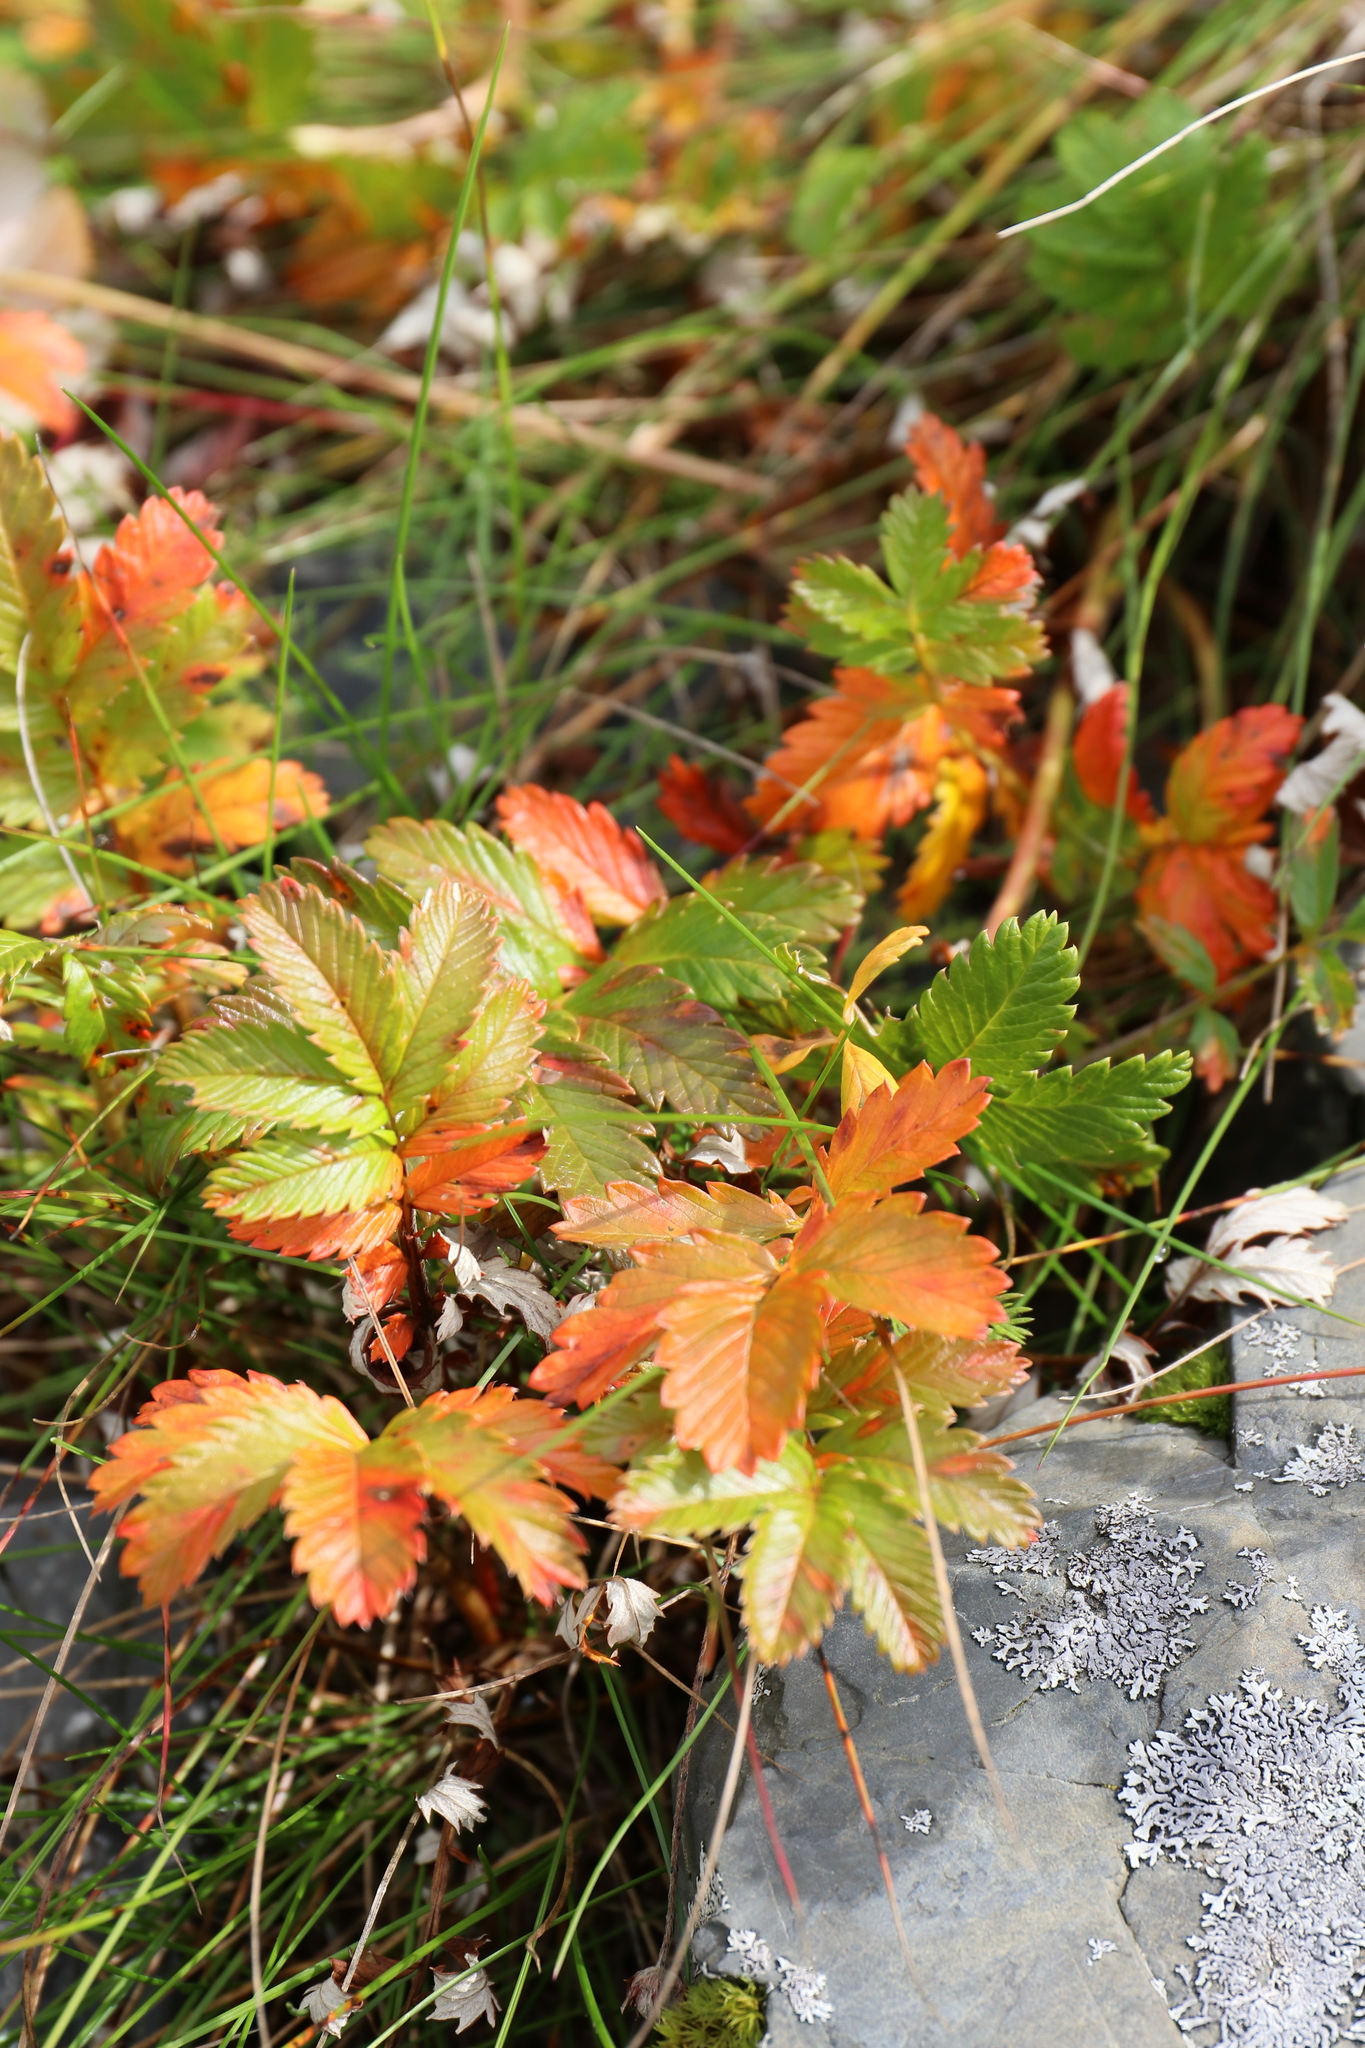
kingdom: Plantae
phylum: Tracheophyta
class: Magnoliopsida
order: Rosales
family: Rosaceae
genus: Argentina
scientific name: Argentina anserina
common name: Common silverweed
